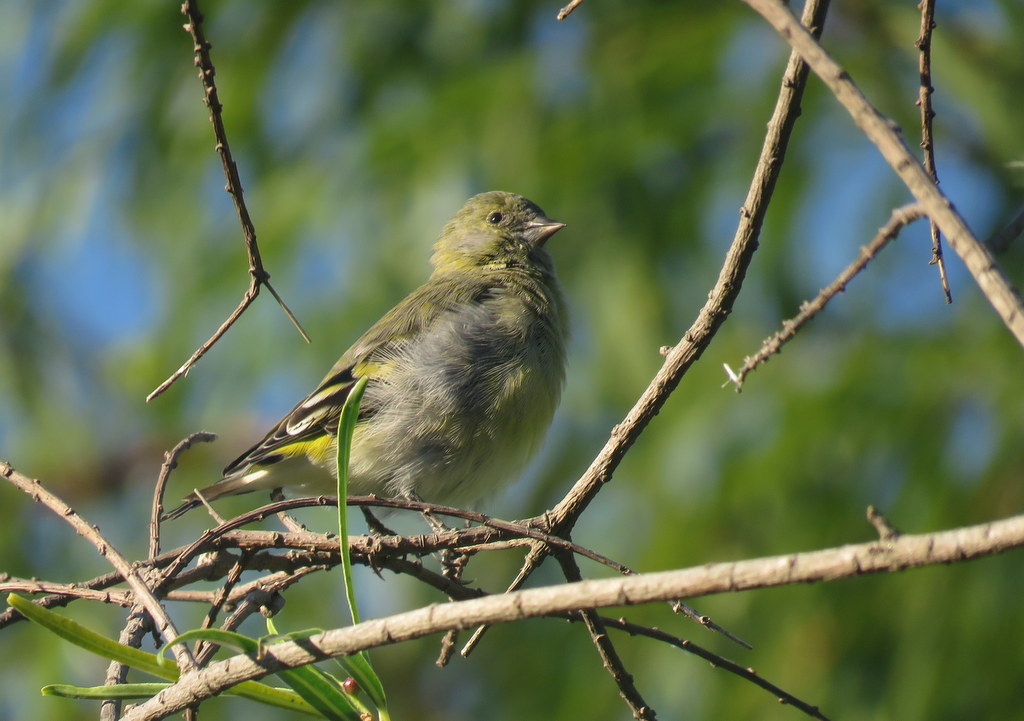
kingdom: Animalia
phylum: Chordata
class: Aves
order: Passeriformes
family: Fringillidae
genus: Spinus
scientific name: Spinus magellanicus
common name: Hooded siskin
